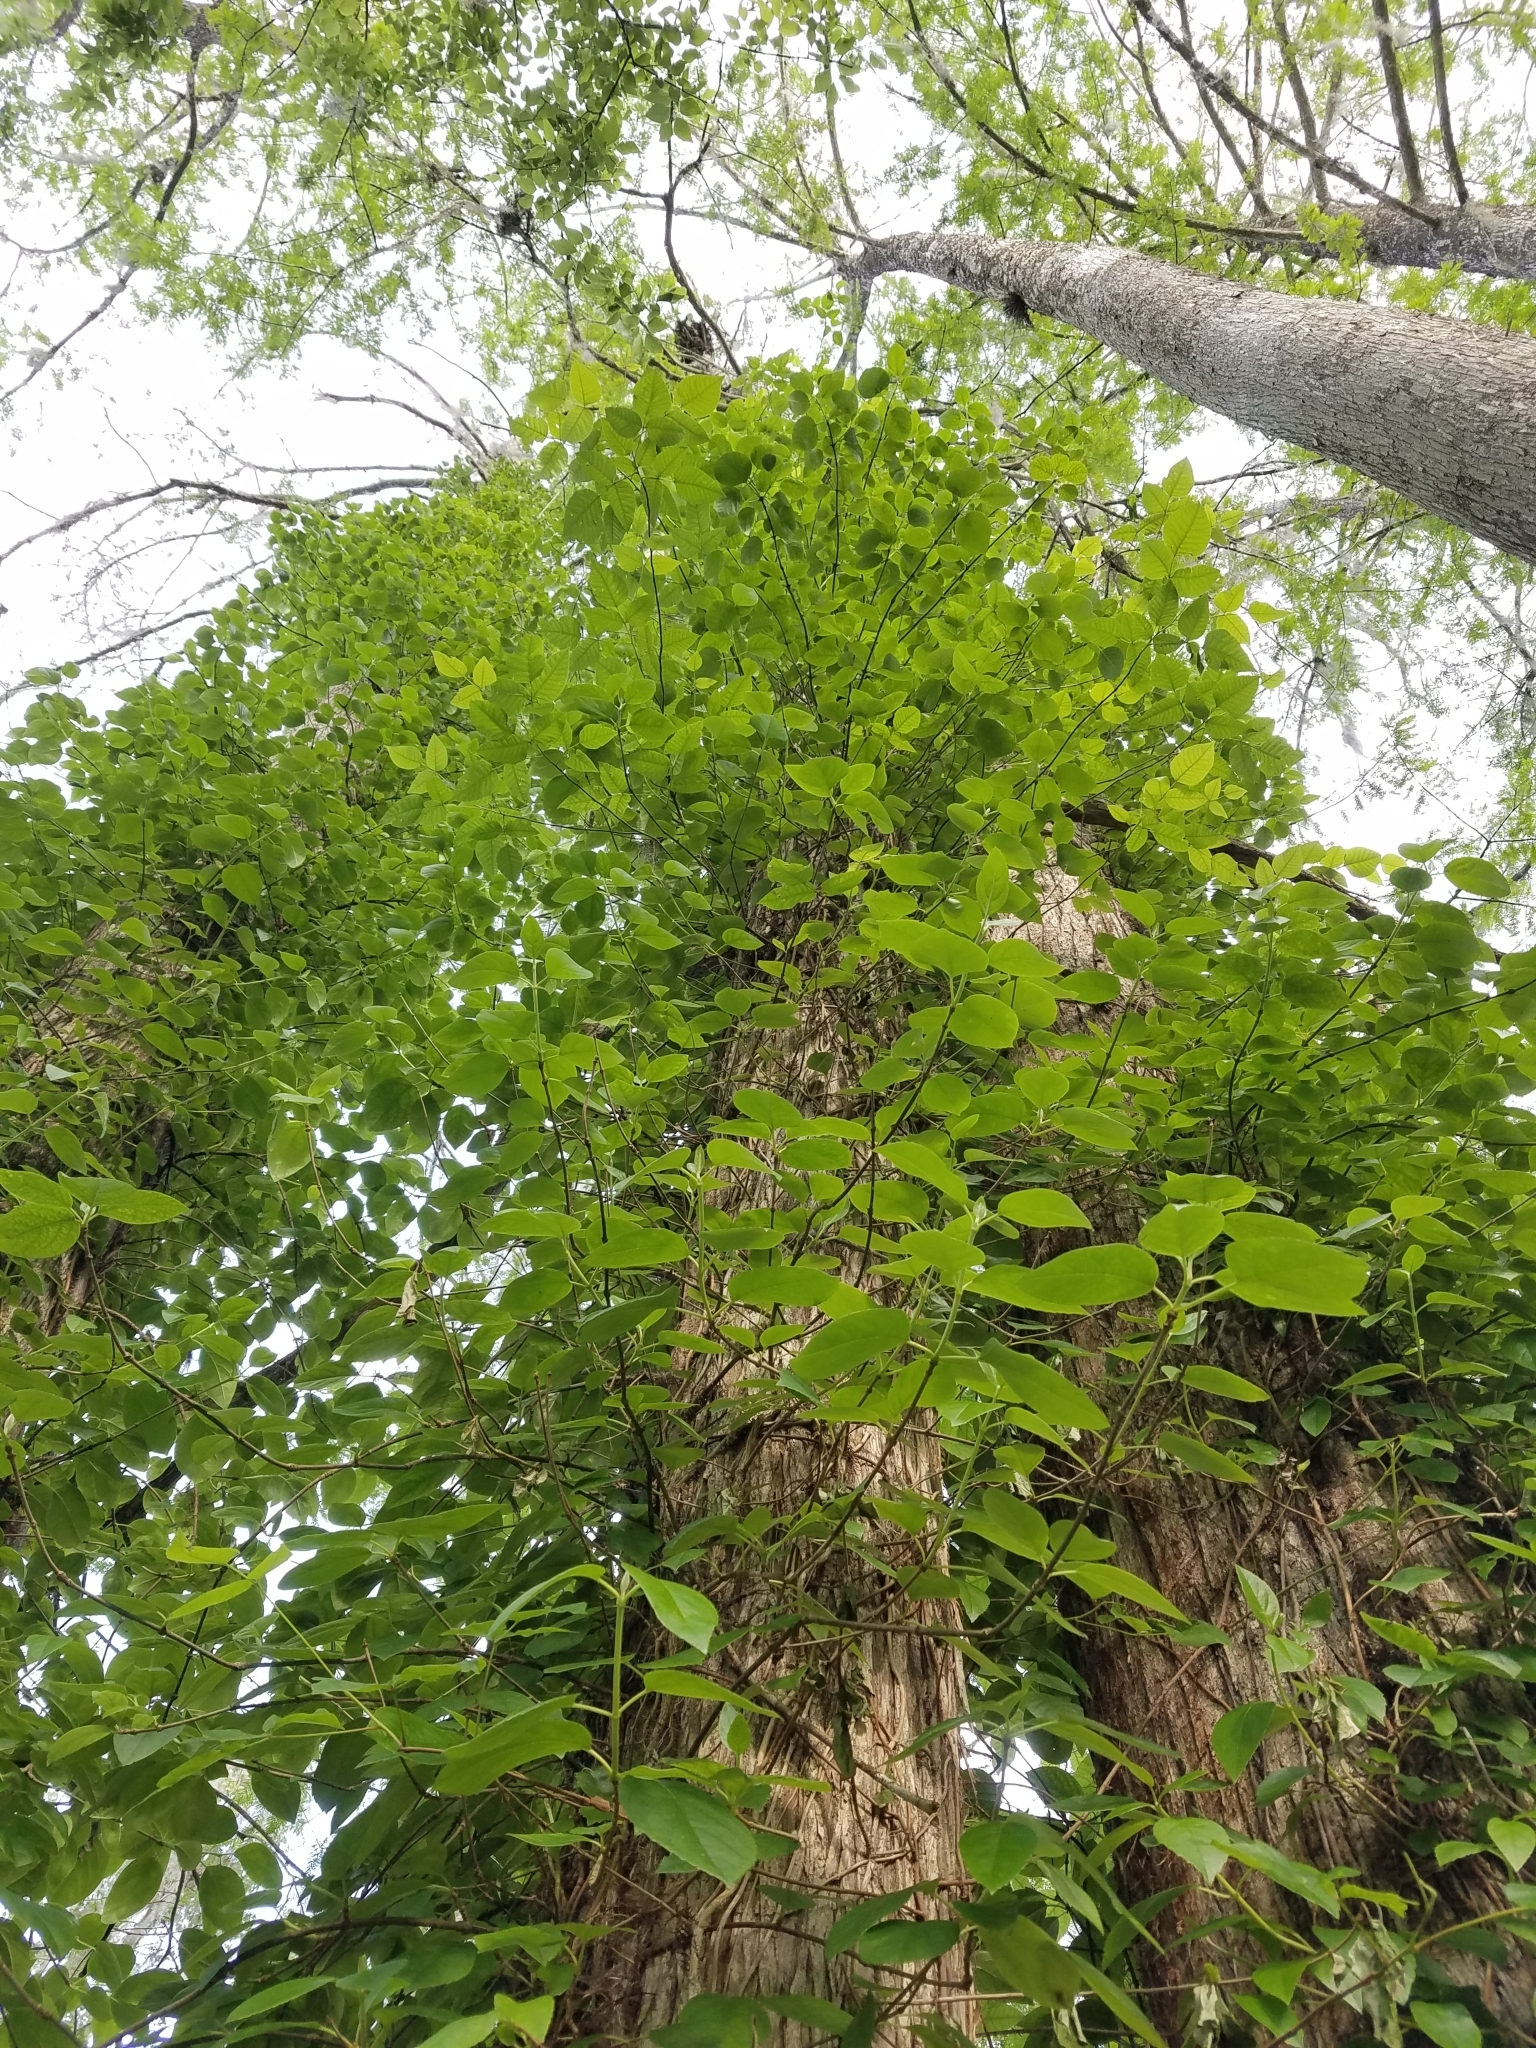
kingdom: Plantae
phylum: Tracheophyta
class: Magnoliopsida
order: Cornales
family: Hydrangeaceae
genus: Hydrangea
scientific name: Hydrangea barbara
